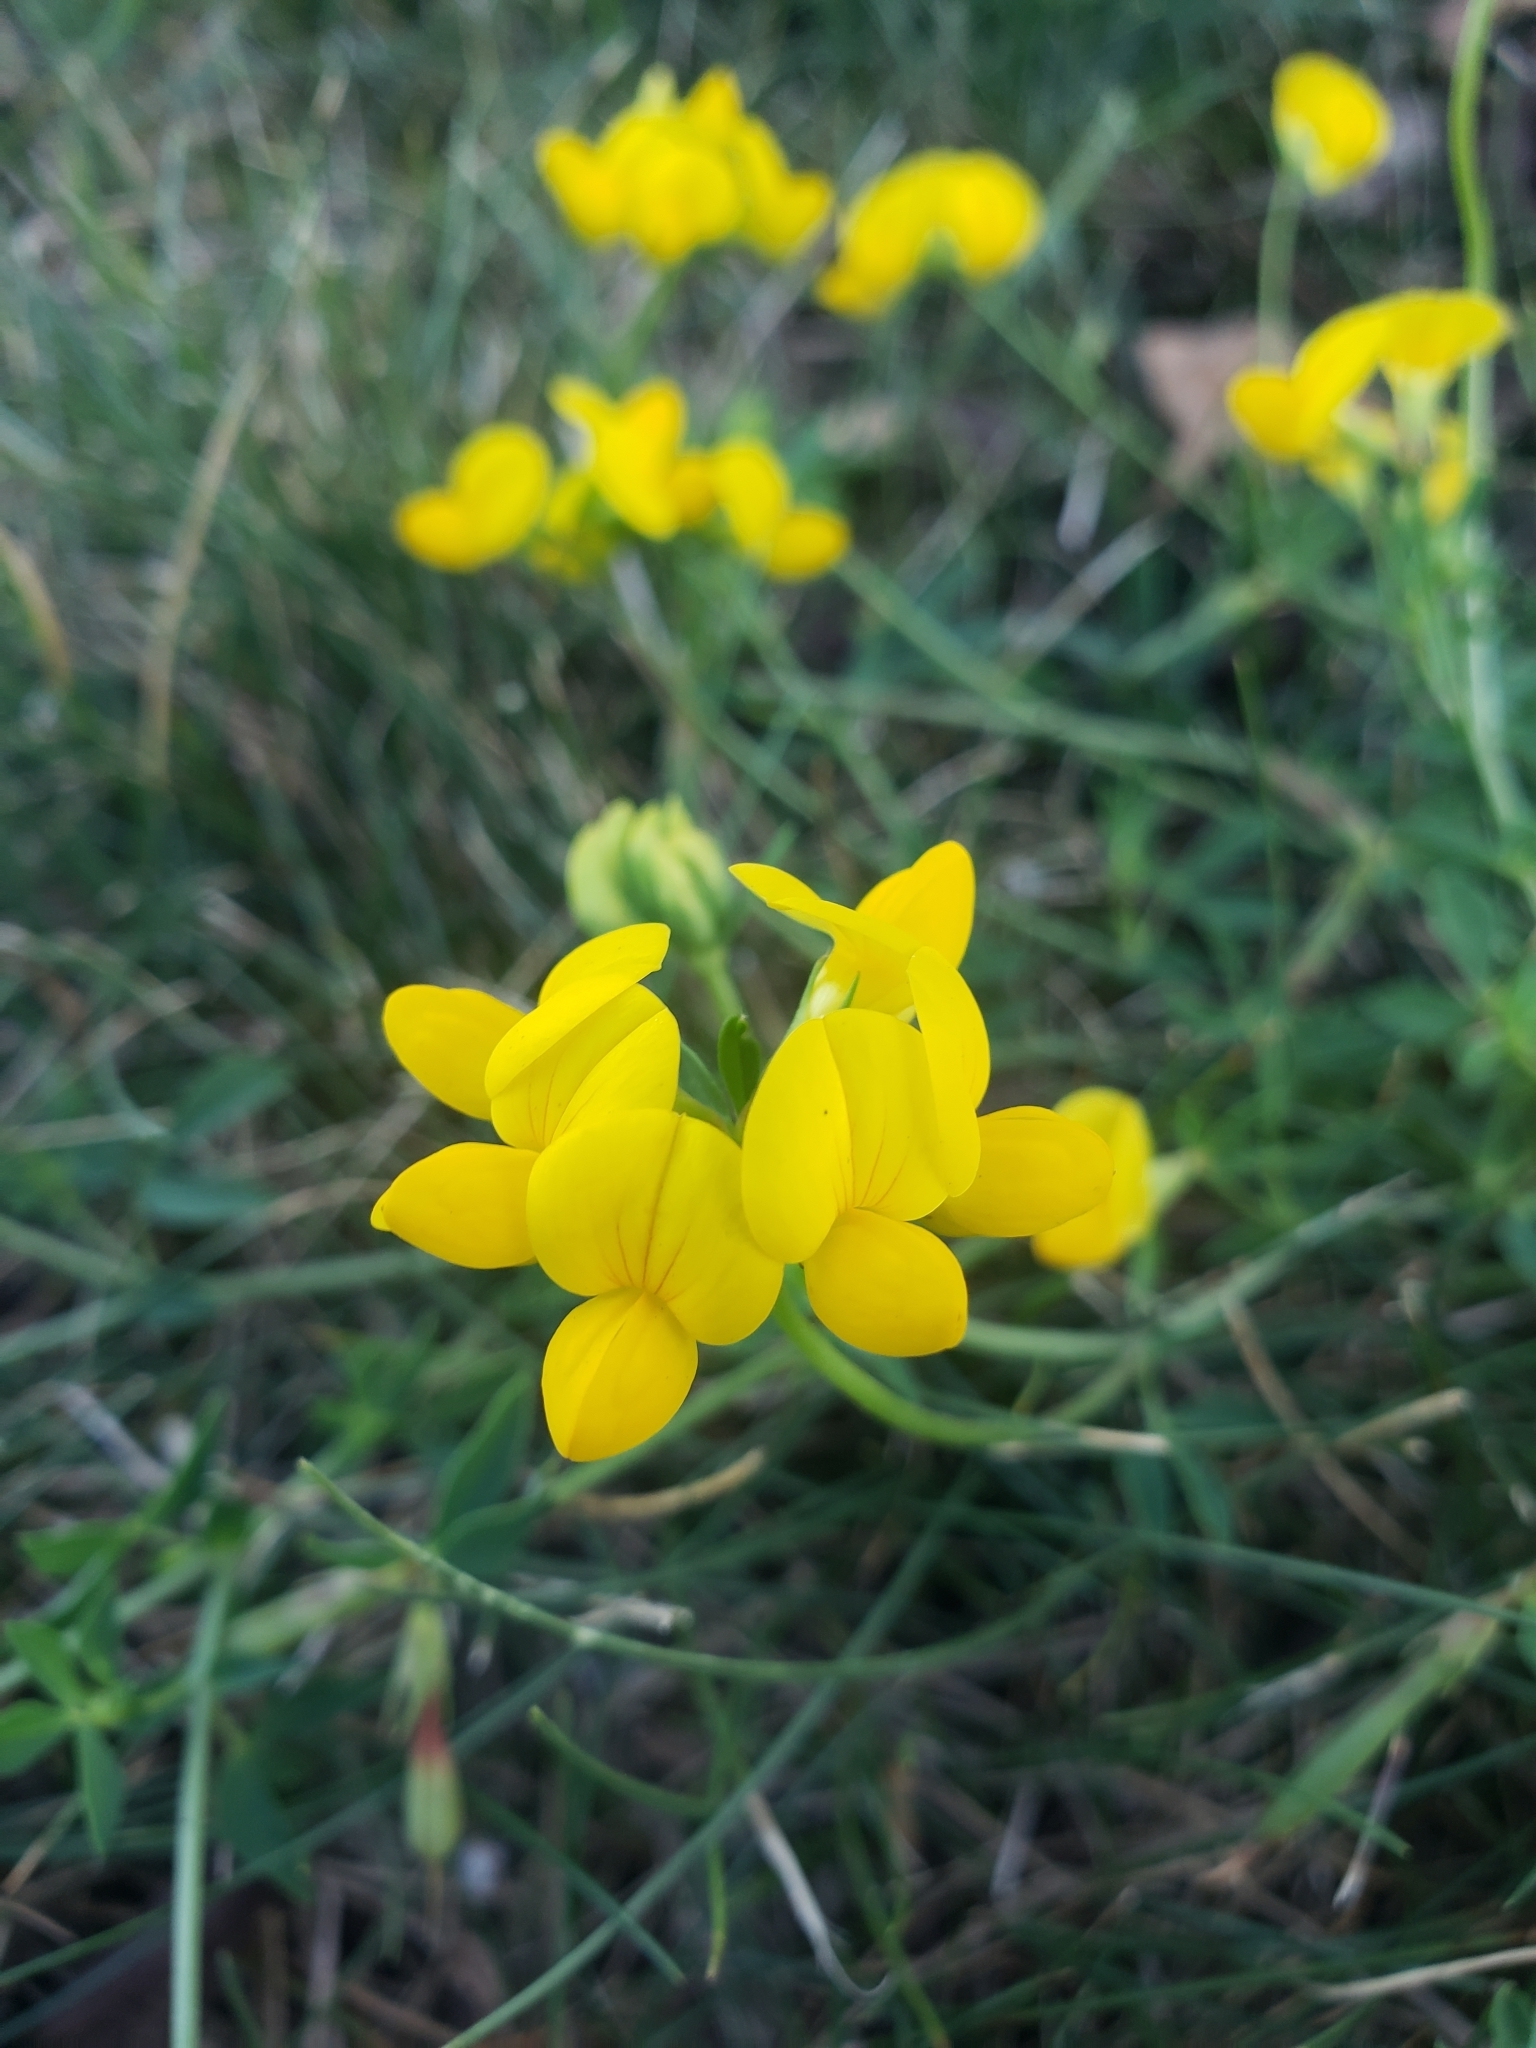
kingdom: Plantae
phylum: Tracheophyta
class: Magnoliopsida
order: Fabales
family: Fabaceae
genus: Lotus
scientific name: Lotus corniculatus
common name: Common bird's-foot-trefoil
